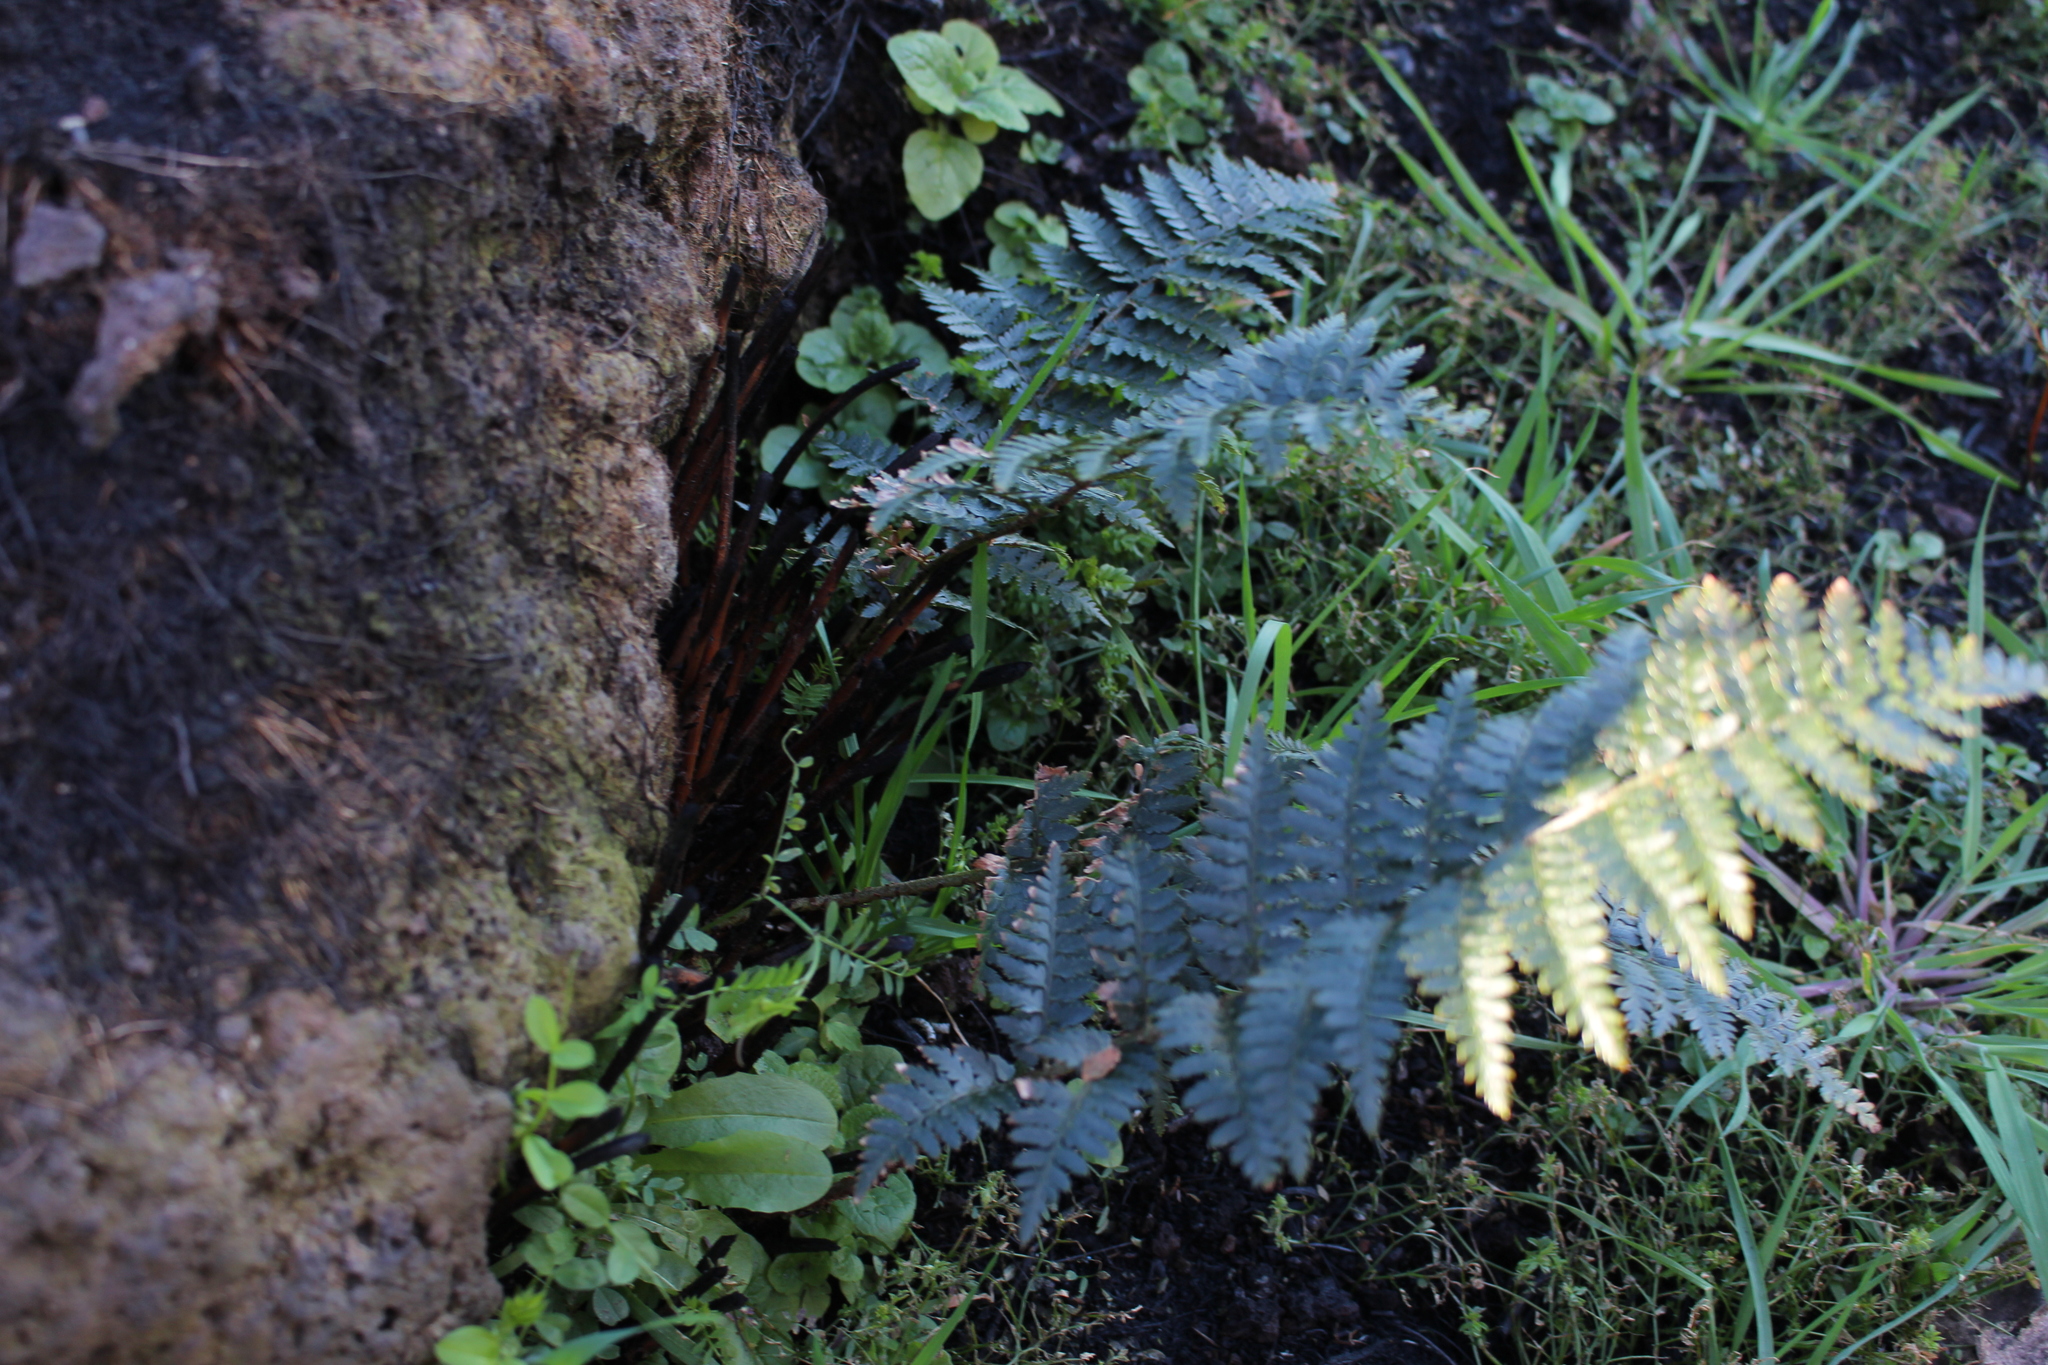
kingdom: Plantae
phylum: Tracheophyta
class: Polypodiopsida
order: Polypodiales
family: Dryopteridaceae
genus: Polystichum
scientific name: Polystichum oculatum
